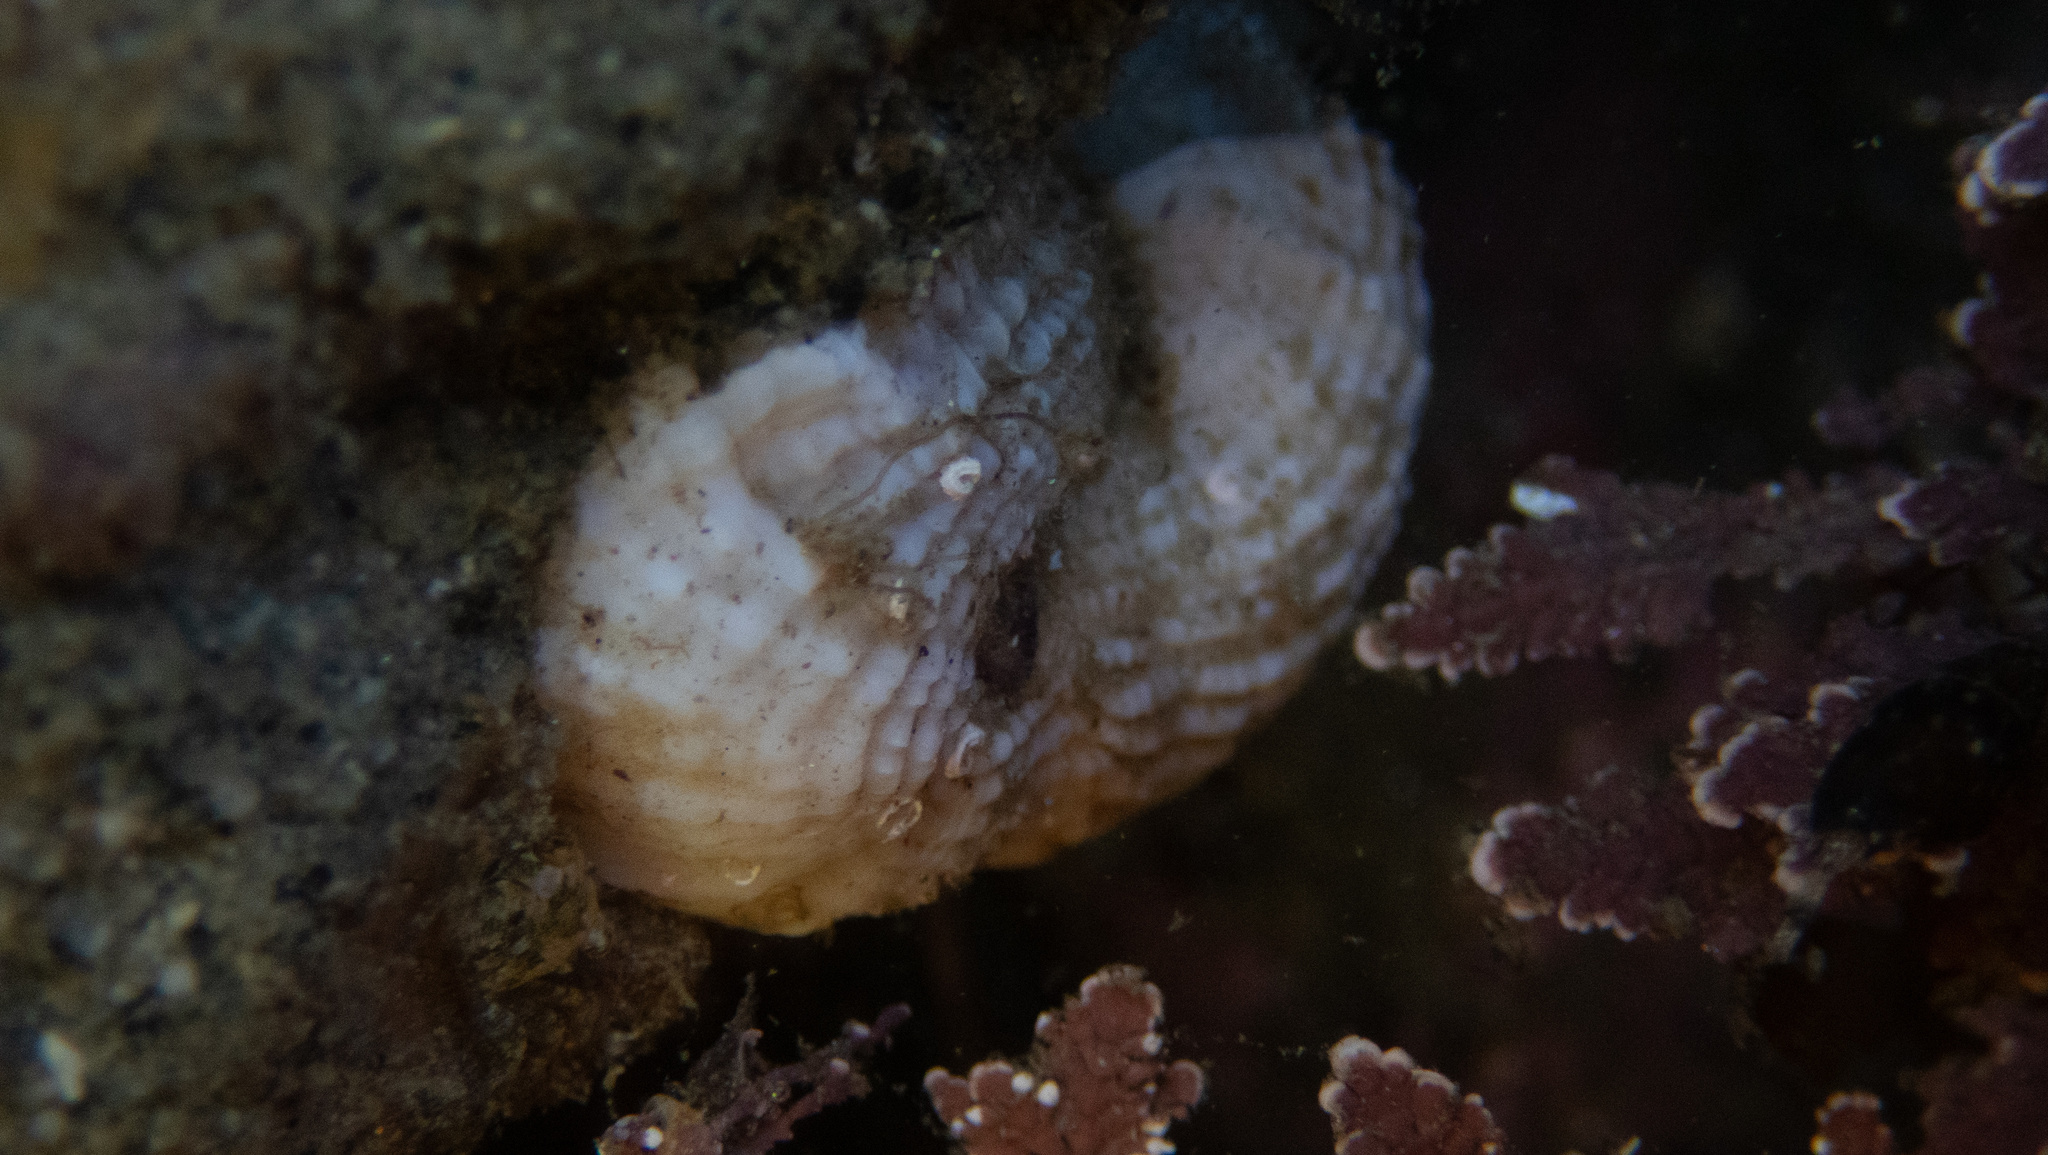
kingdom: Animalia
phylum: Mollusca
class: Gastropoda
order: Littorinimorpha
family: Vermetidae
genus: Thylacodes
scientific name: Thylacodes squamigerus
